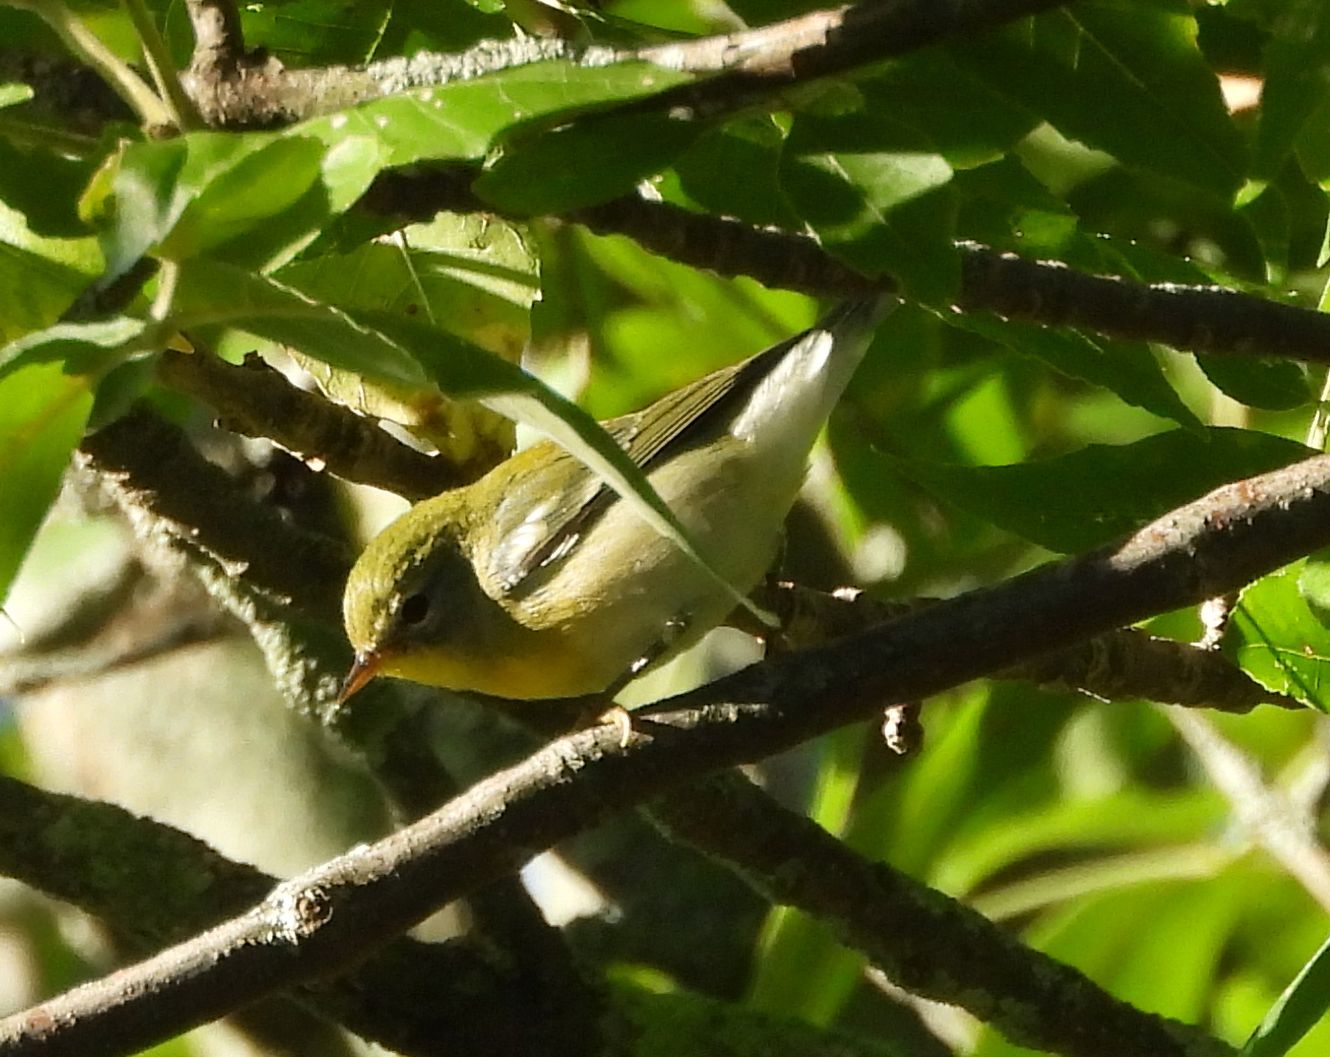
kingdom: Animalia
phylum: Chordata
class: Aves
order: Passeriformes
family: Parulidae
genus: Setophaga
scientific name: Setophaga americana
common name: Northern parula
